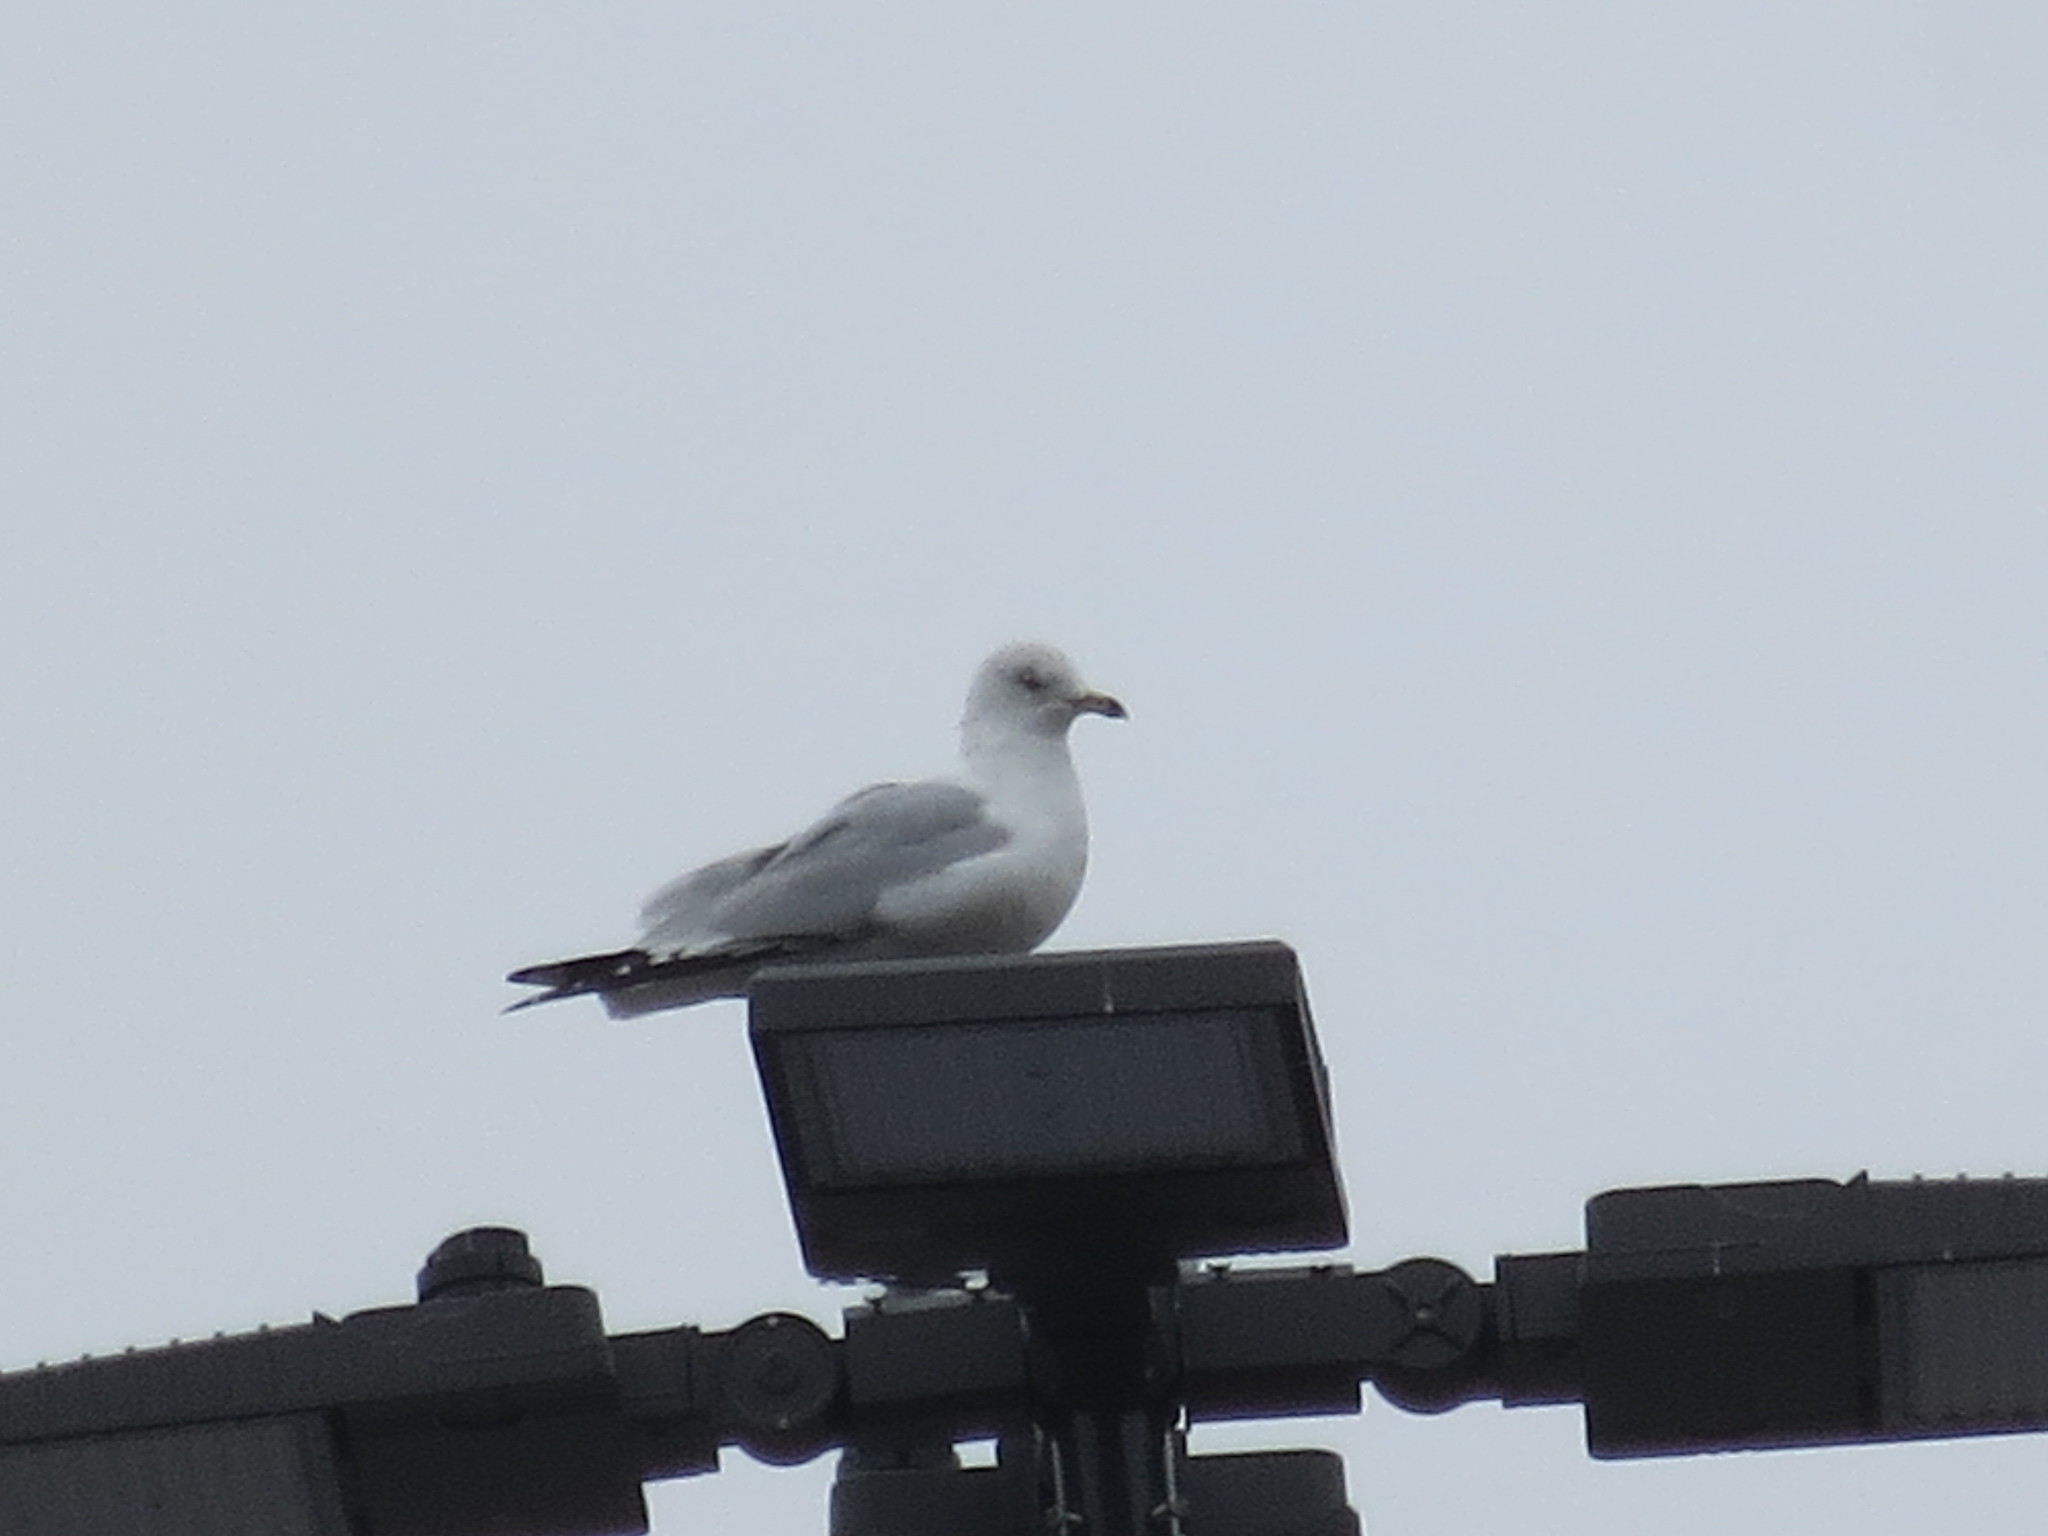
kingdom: Animalia
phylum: Chordata
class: Aves
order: Charadriiformes
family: Laridae
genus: Larus
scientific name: Larus delawarensis
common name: Ring-billed gull
